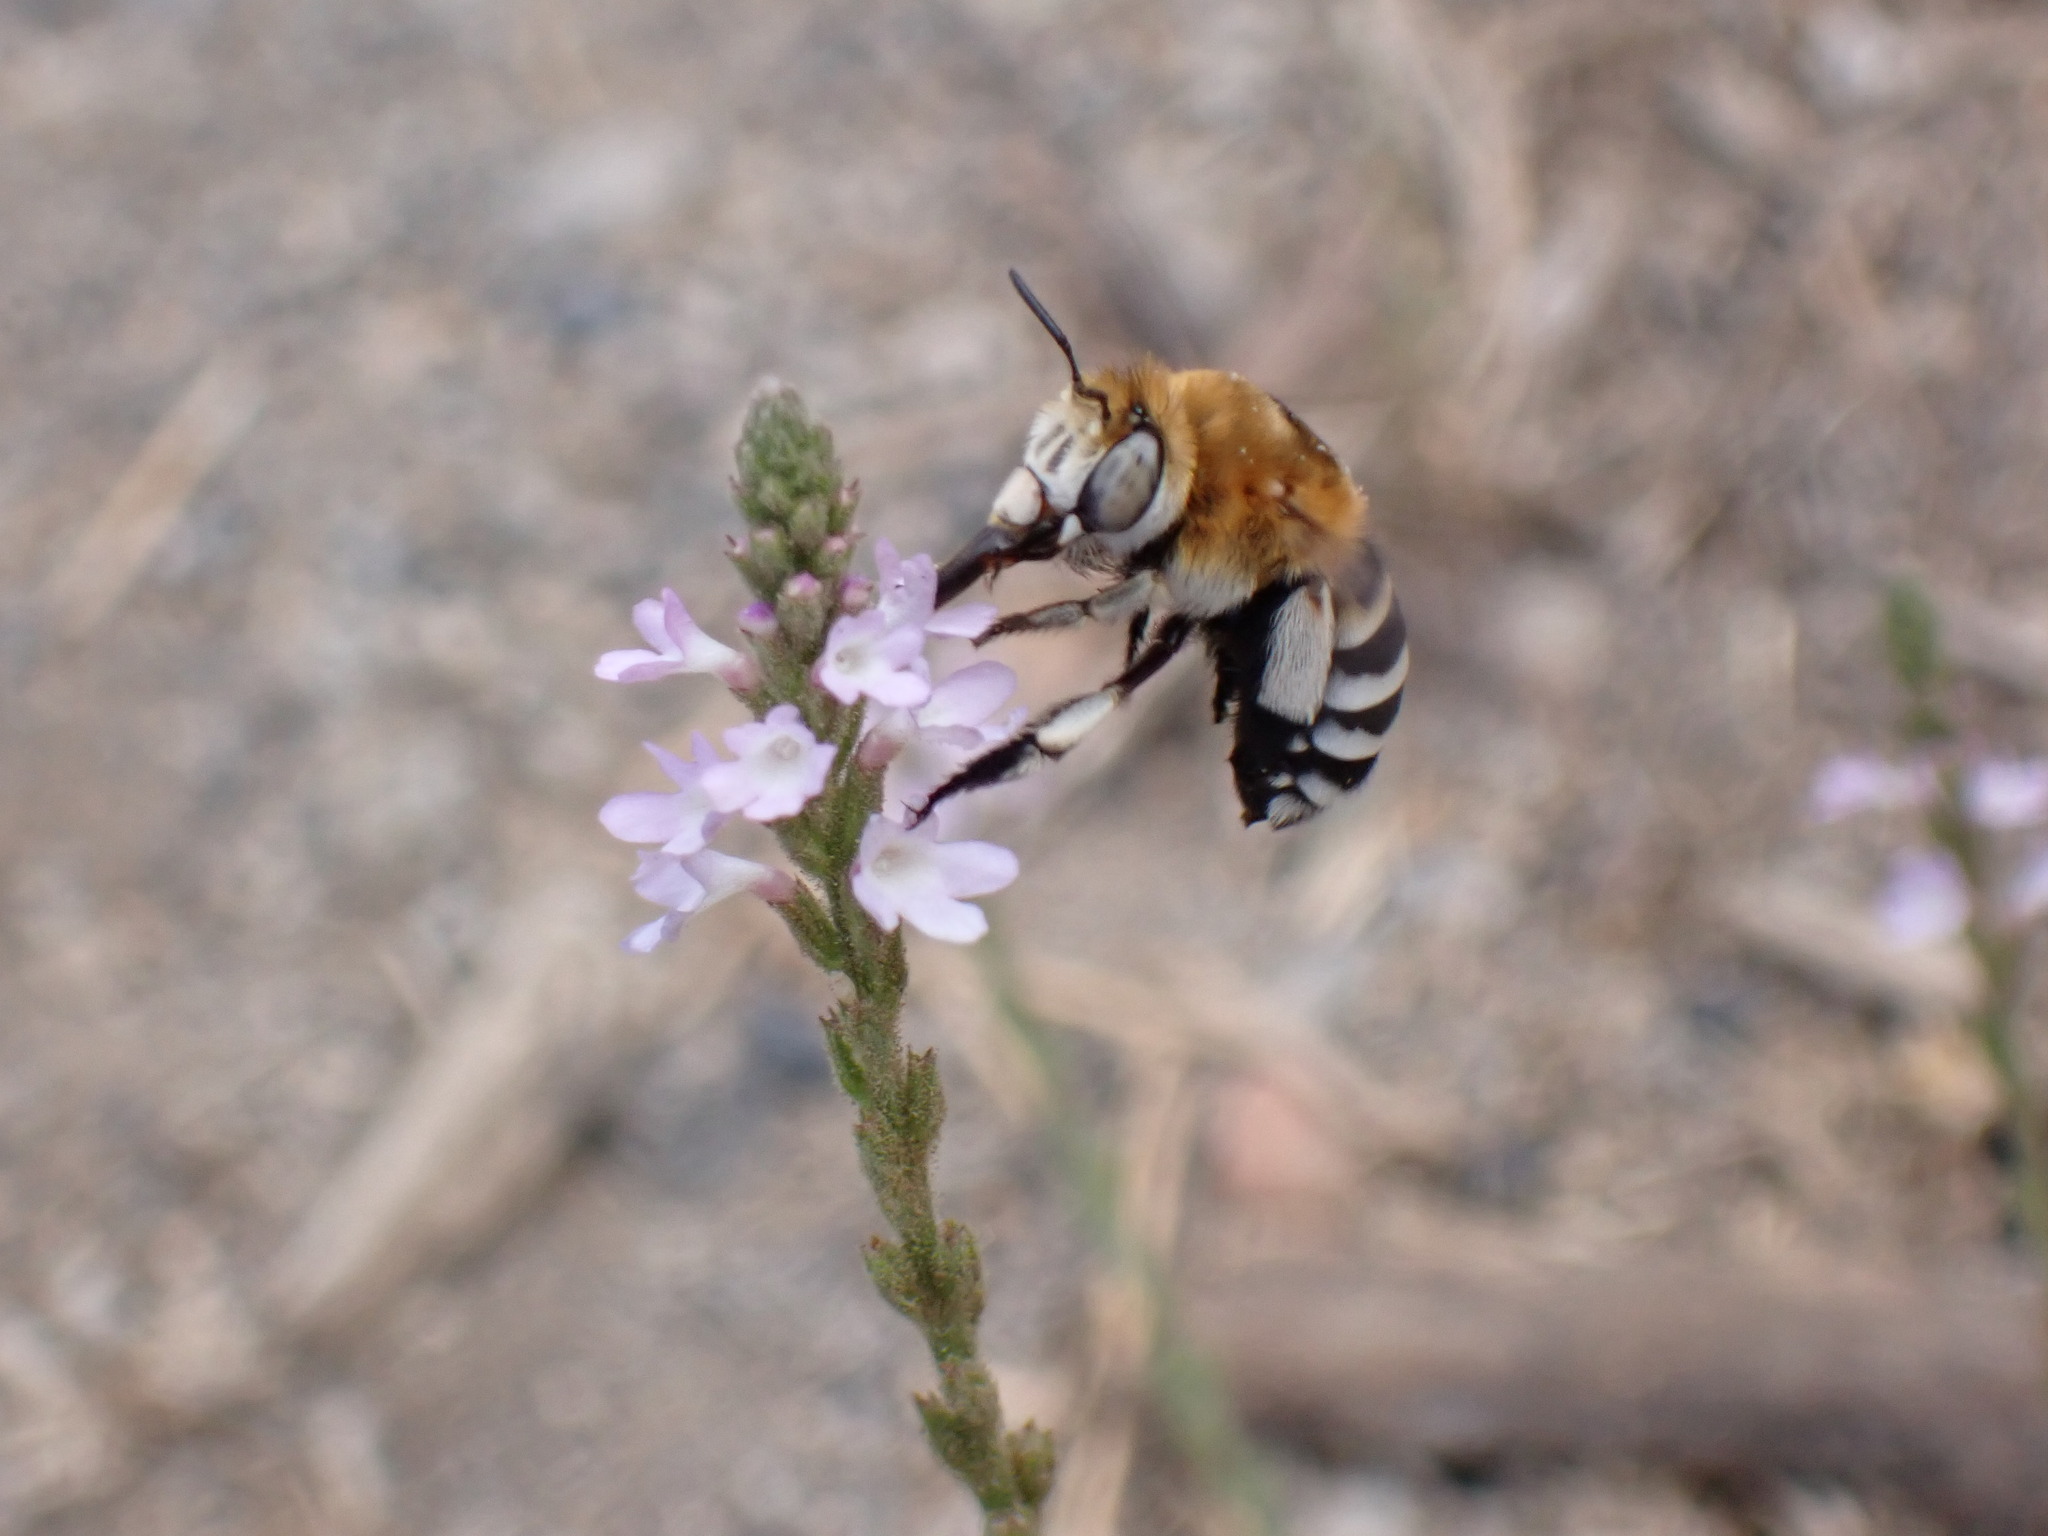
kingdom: Animalia
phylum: Arthropoda
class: Insecta
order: Hymenoptera
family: Apidae
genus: Amegilla
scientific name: Amegilla quadrifasciata
